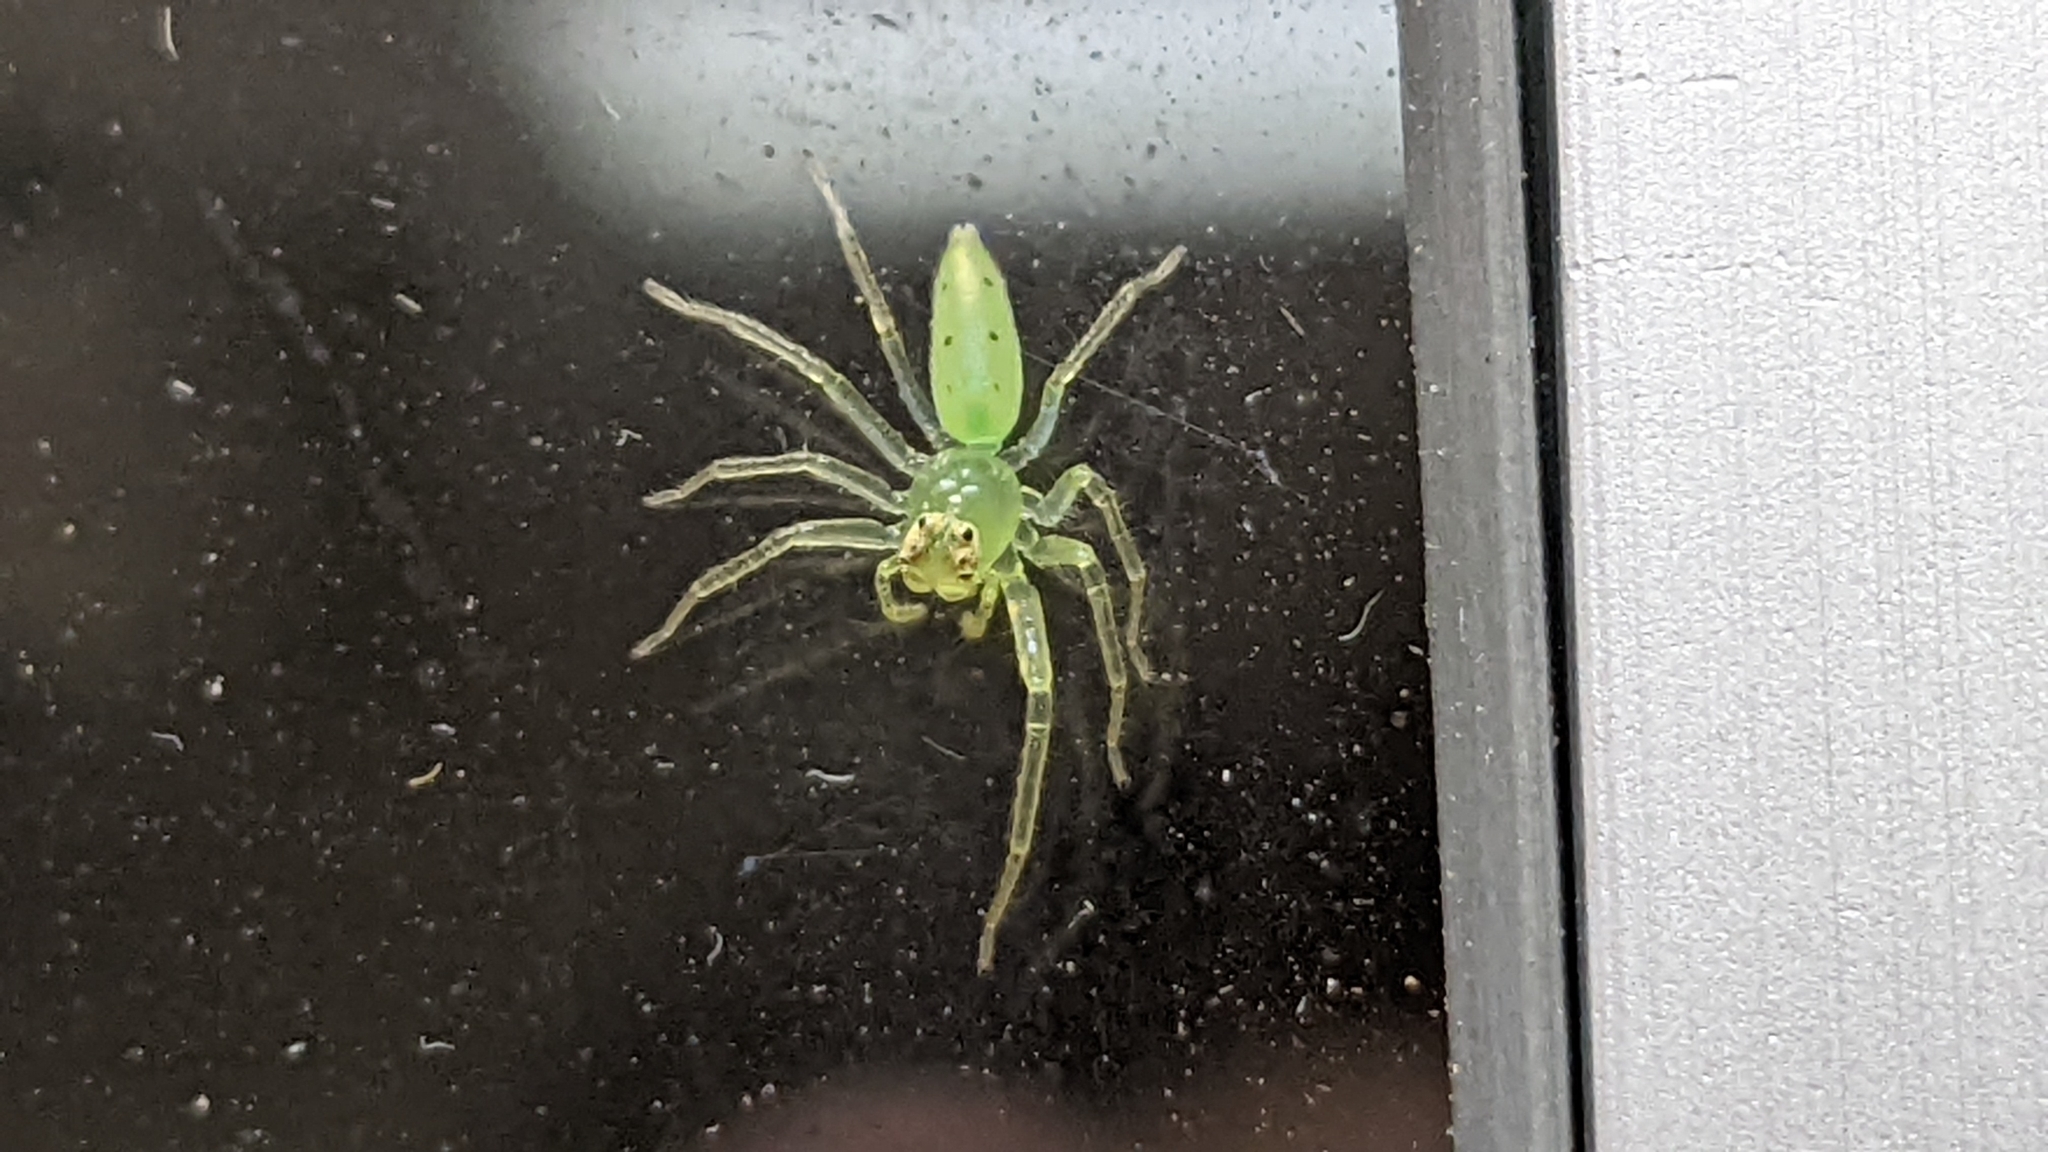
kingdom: Animalia
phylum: Arthropoda
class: Arachnida
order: Araneae
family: Salticidae
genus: Lyssomanes
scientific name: Lyssomanes viridis
